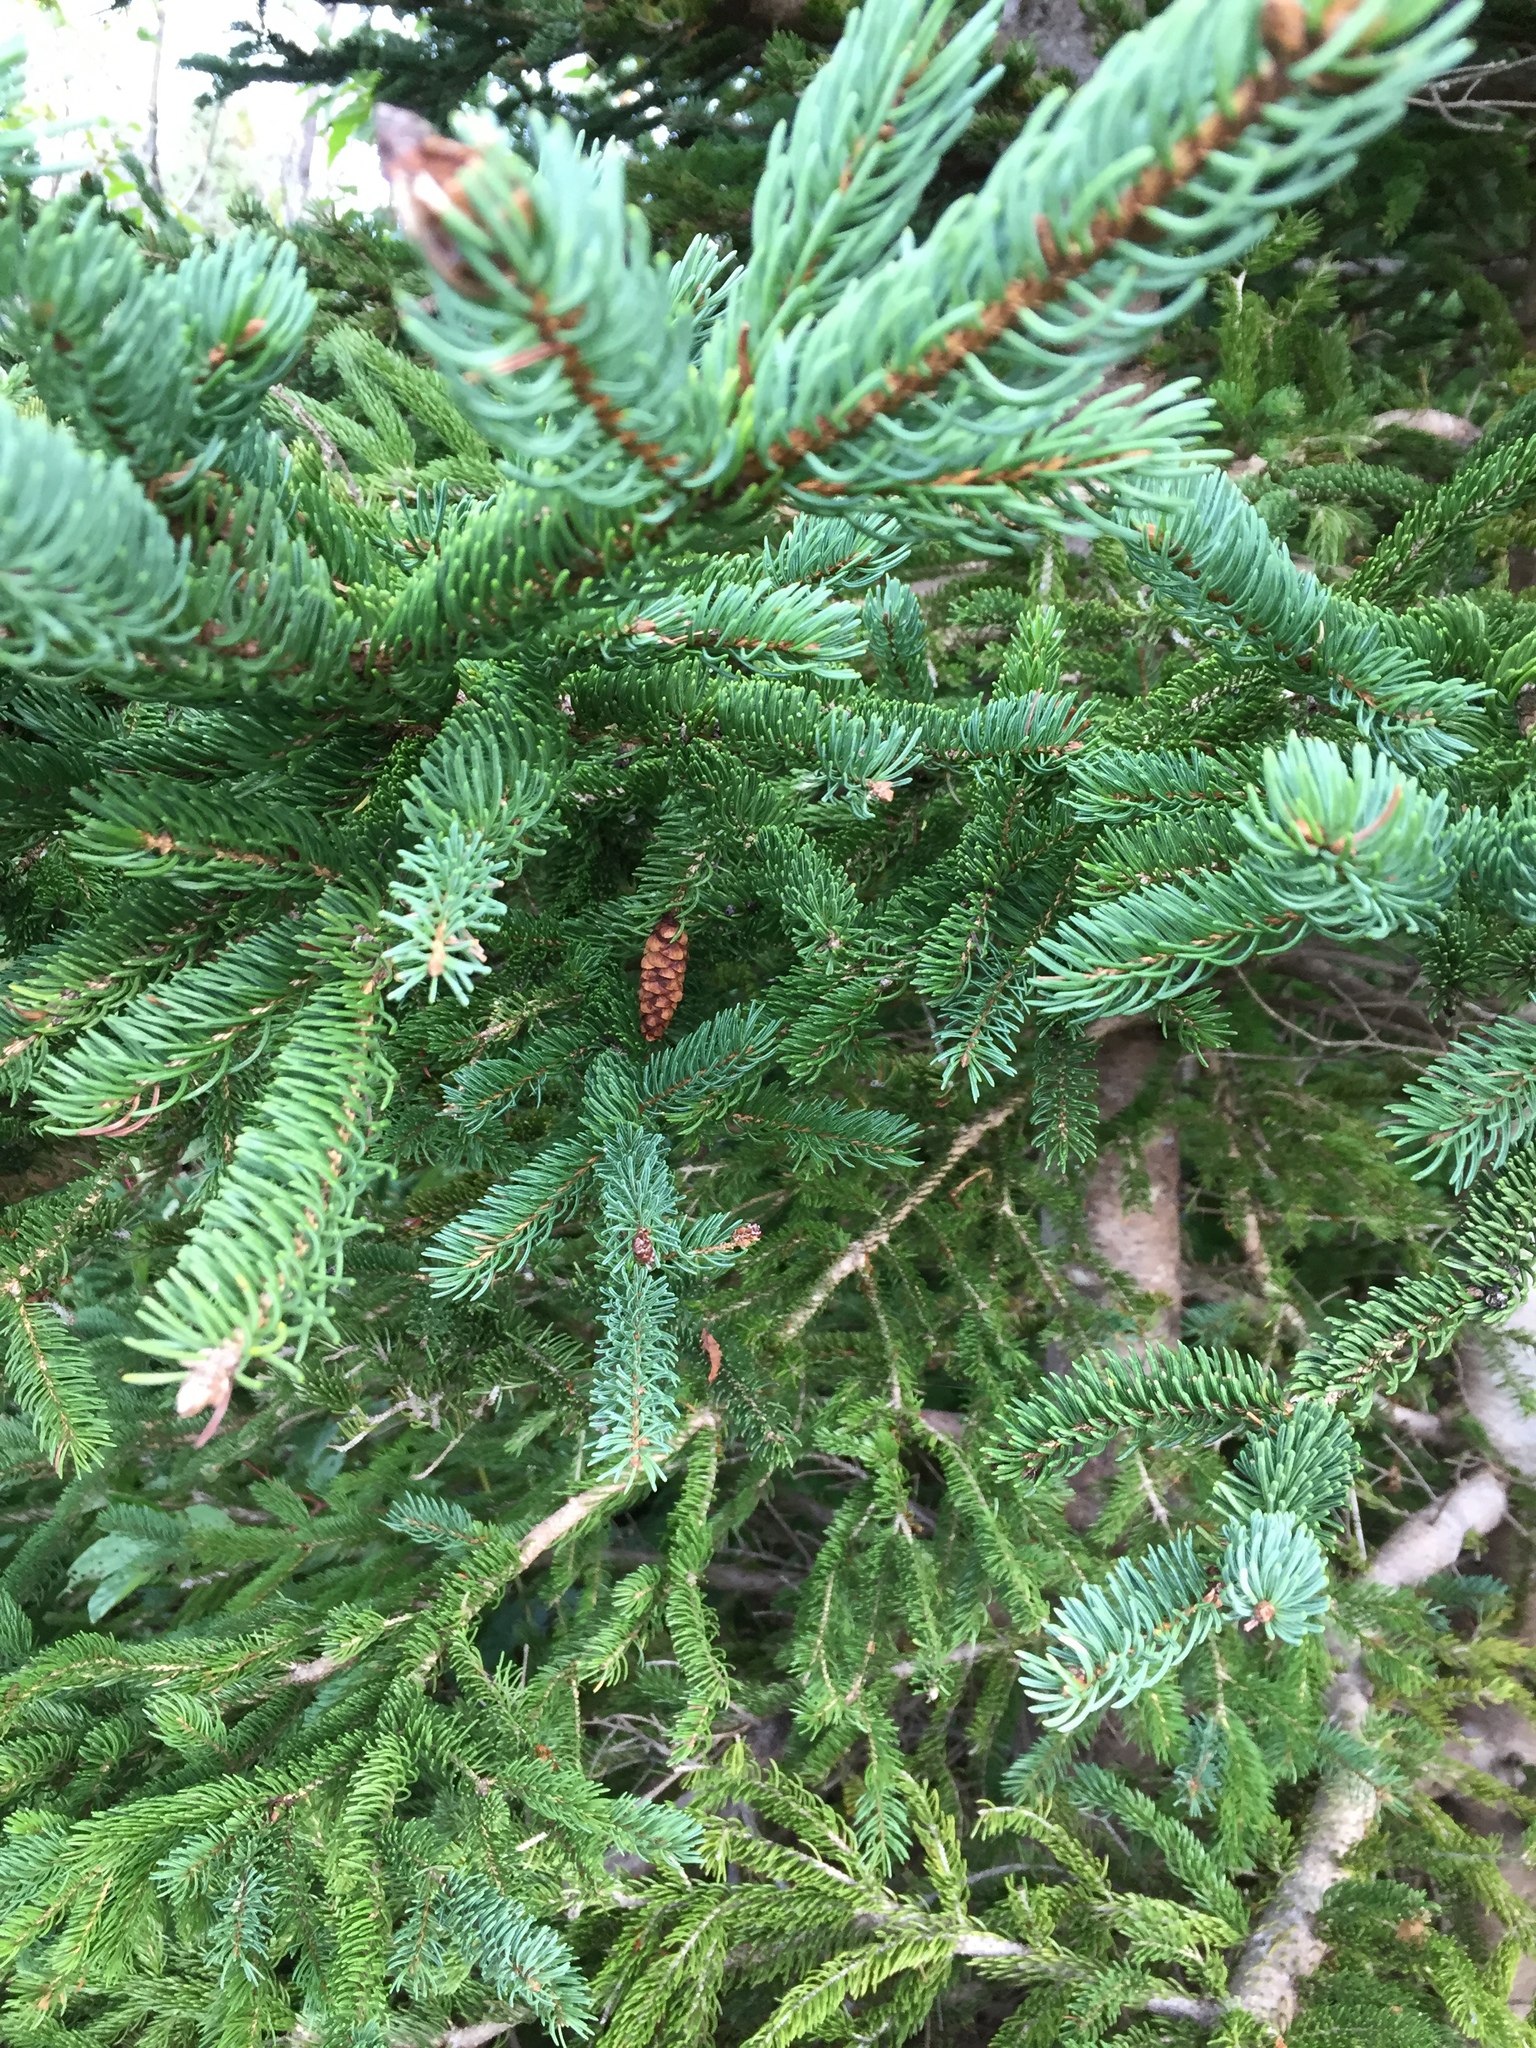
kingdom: Plantae
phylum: Tracheophyta
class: Pinopsida
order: Pinales
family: Pinaceae
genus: Picea
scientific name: Picea glauca
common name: White spruce
